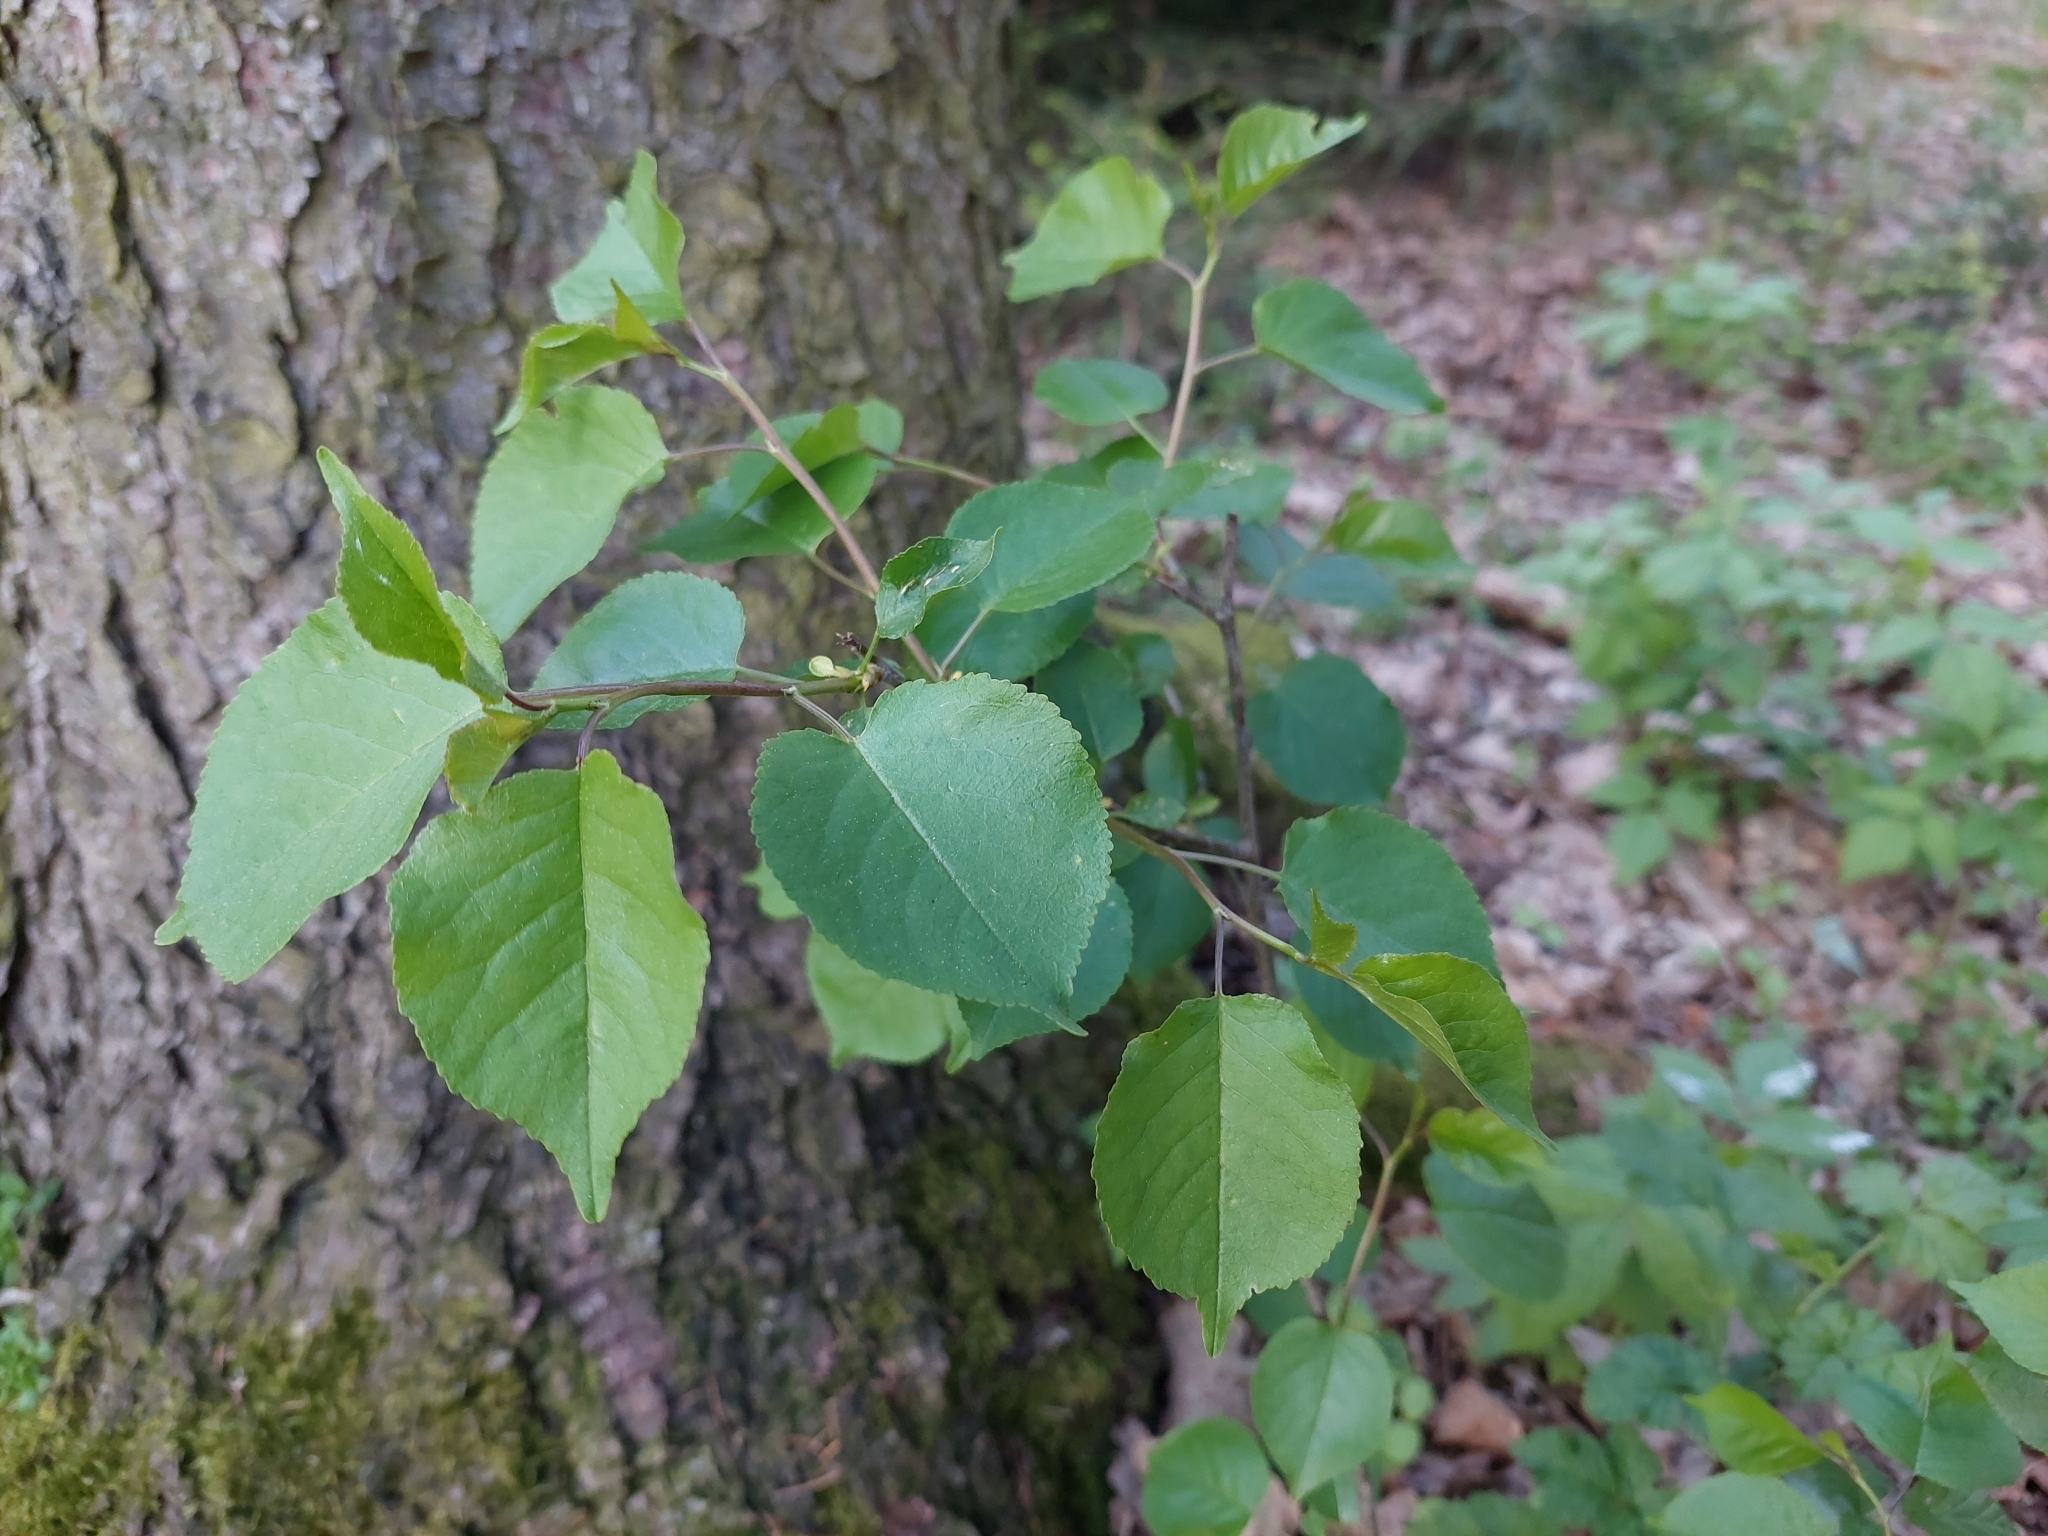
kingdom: Plantae
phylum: Tracheophyta
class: Magnoliopsida
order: Rosales
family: Rosaceae
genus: Prunus
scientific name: Prunus mahaleb
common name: Mahaleb cherry
